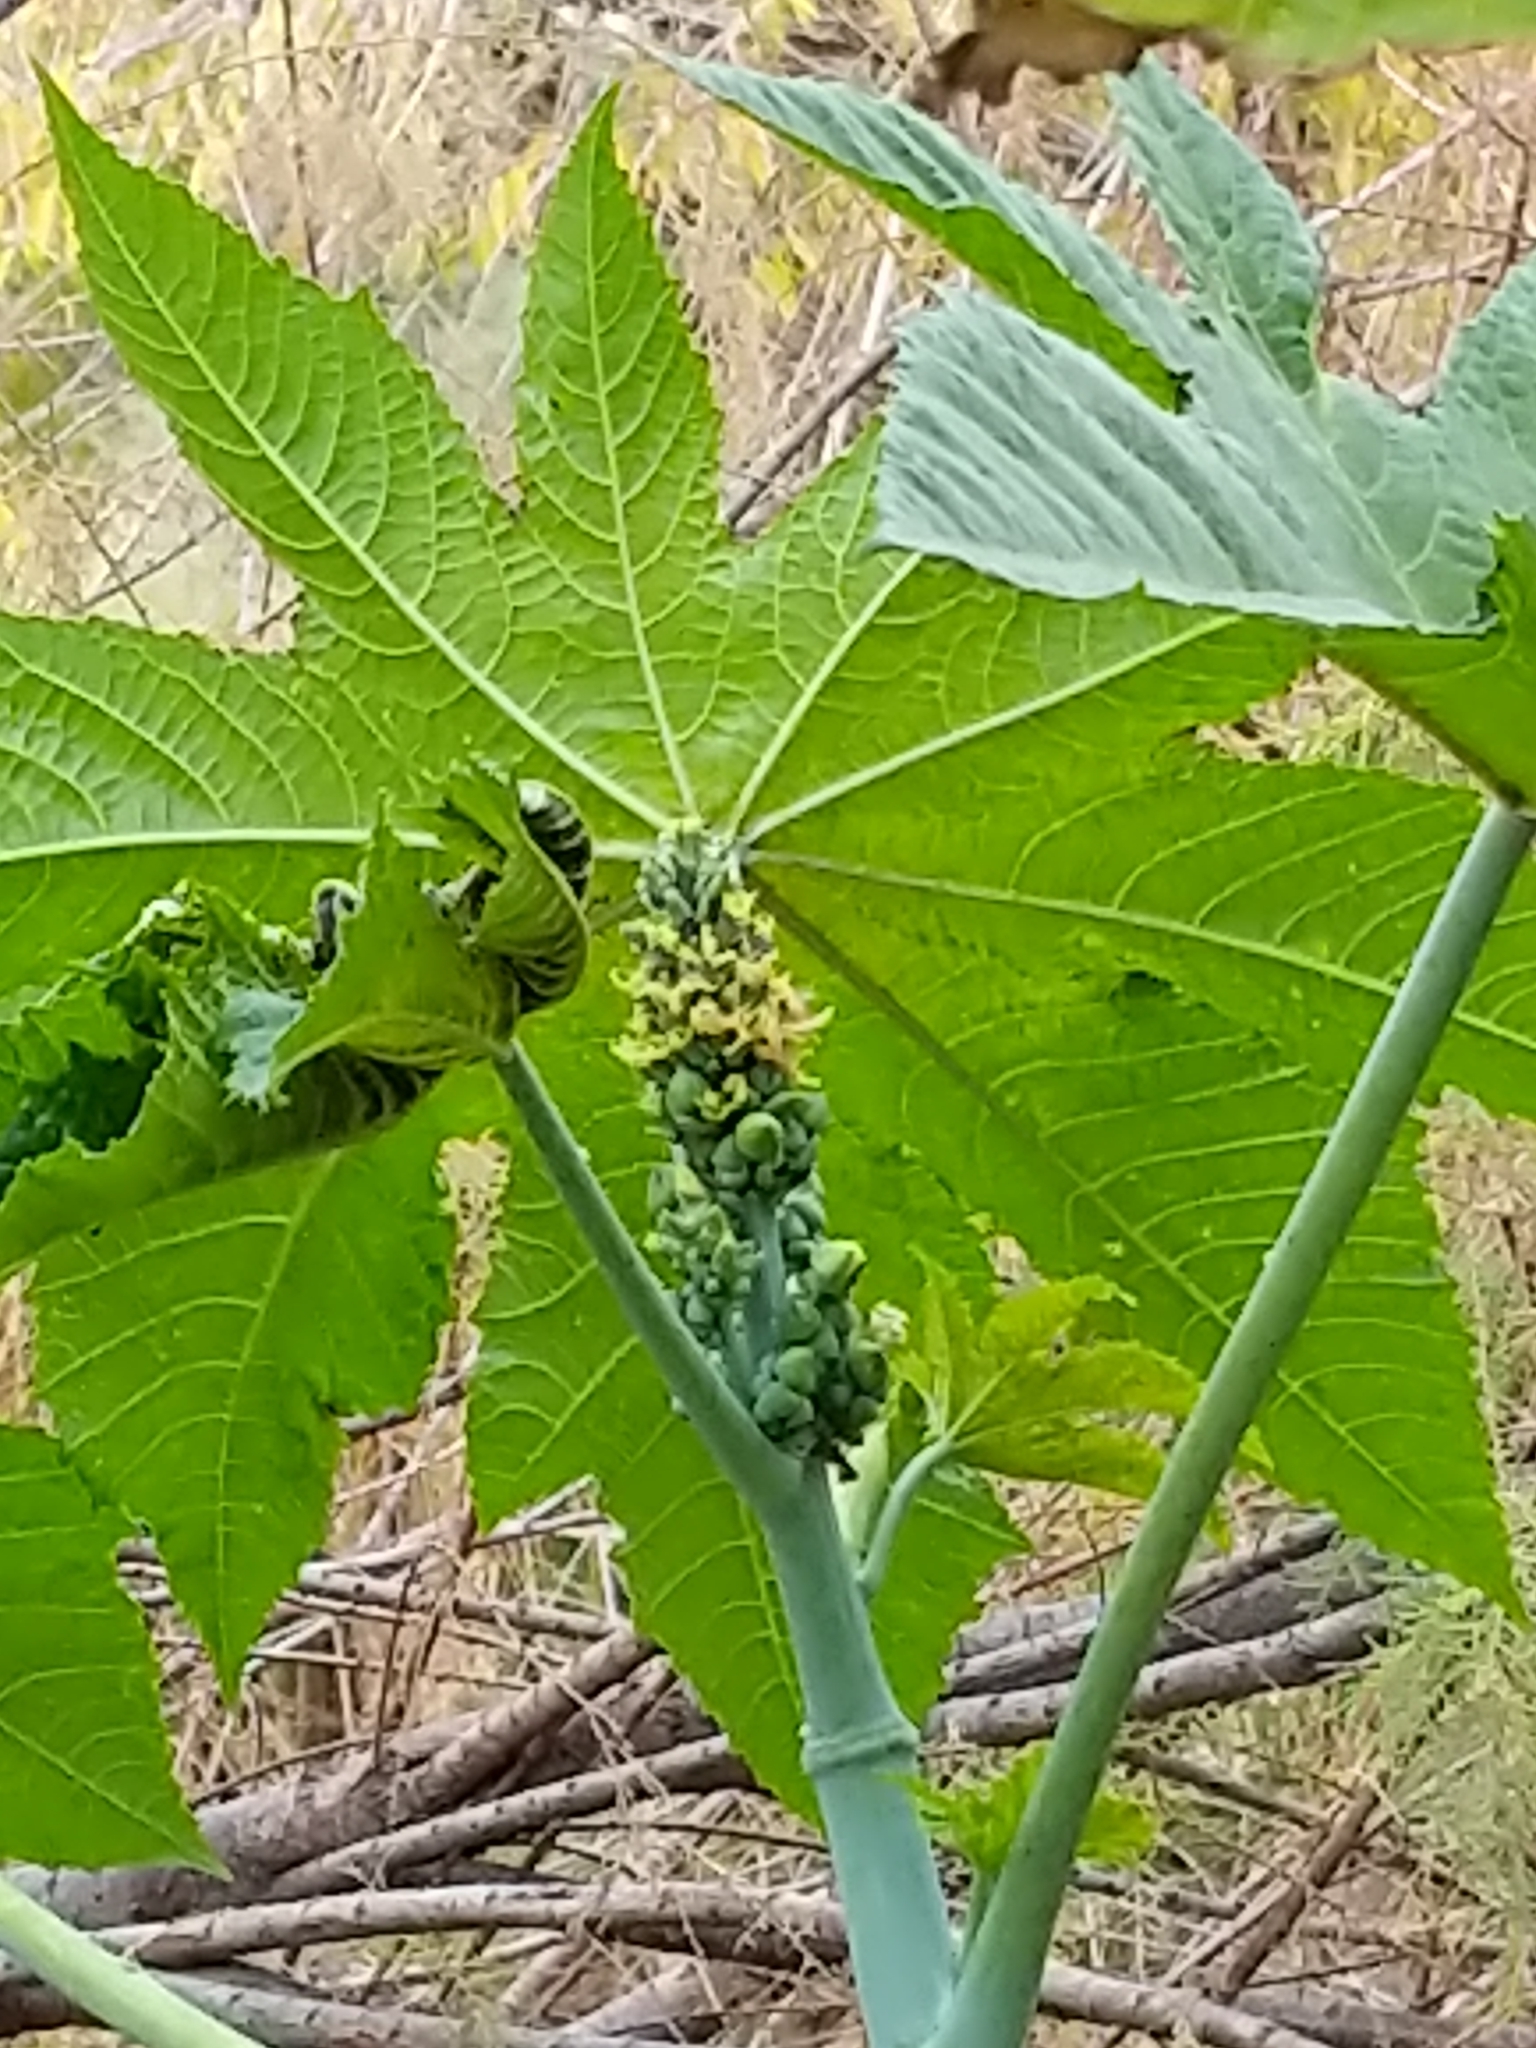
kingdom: Plantae
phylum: Tracheophyta
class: Magnoliopsida
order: Malpighiales
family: Euphorbiaceae
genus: Ricinus
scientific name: Ricinus communis
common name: Castor-oil-plant
